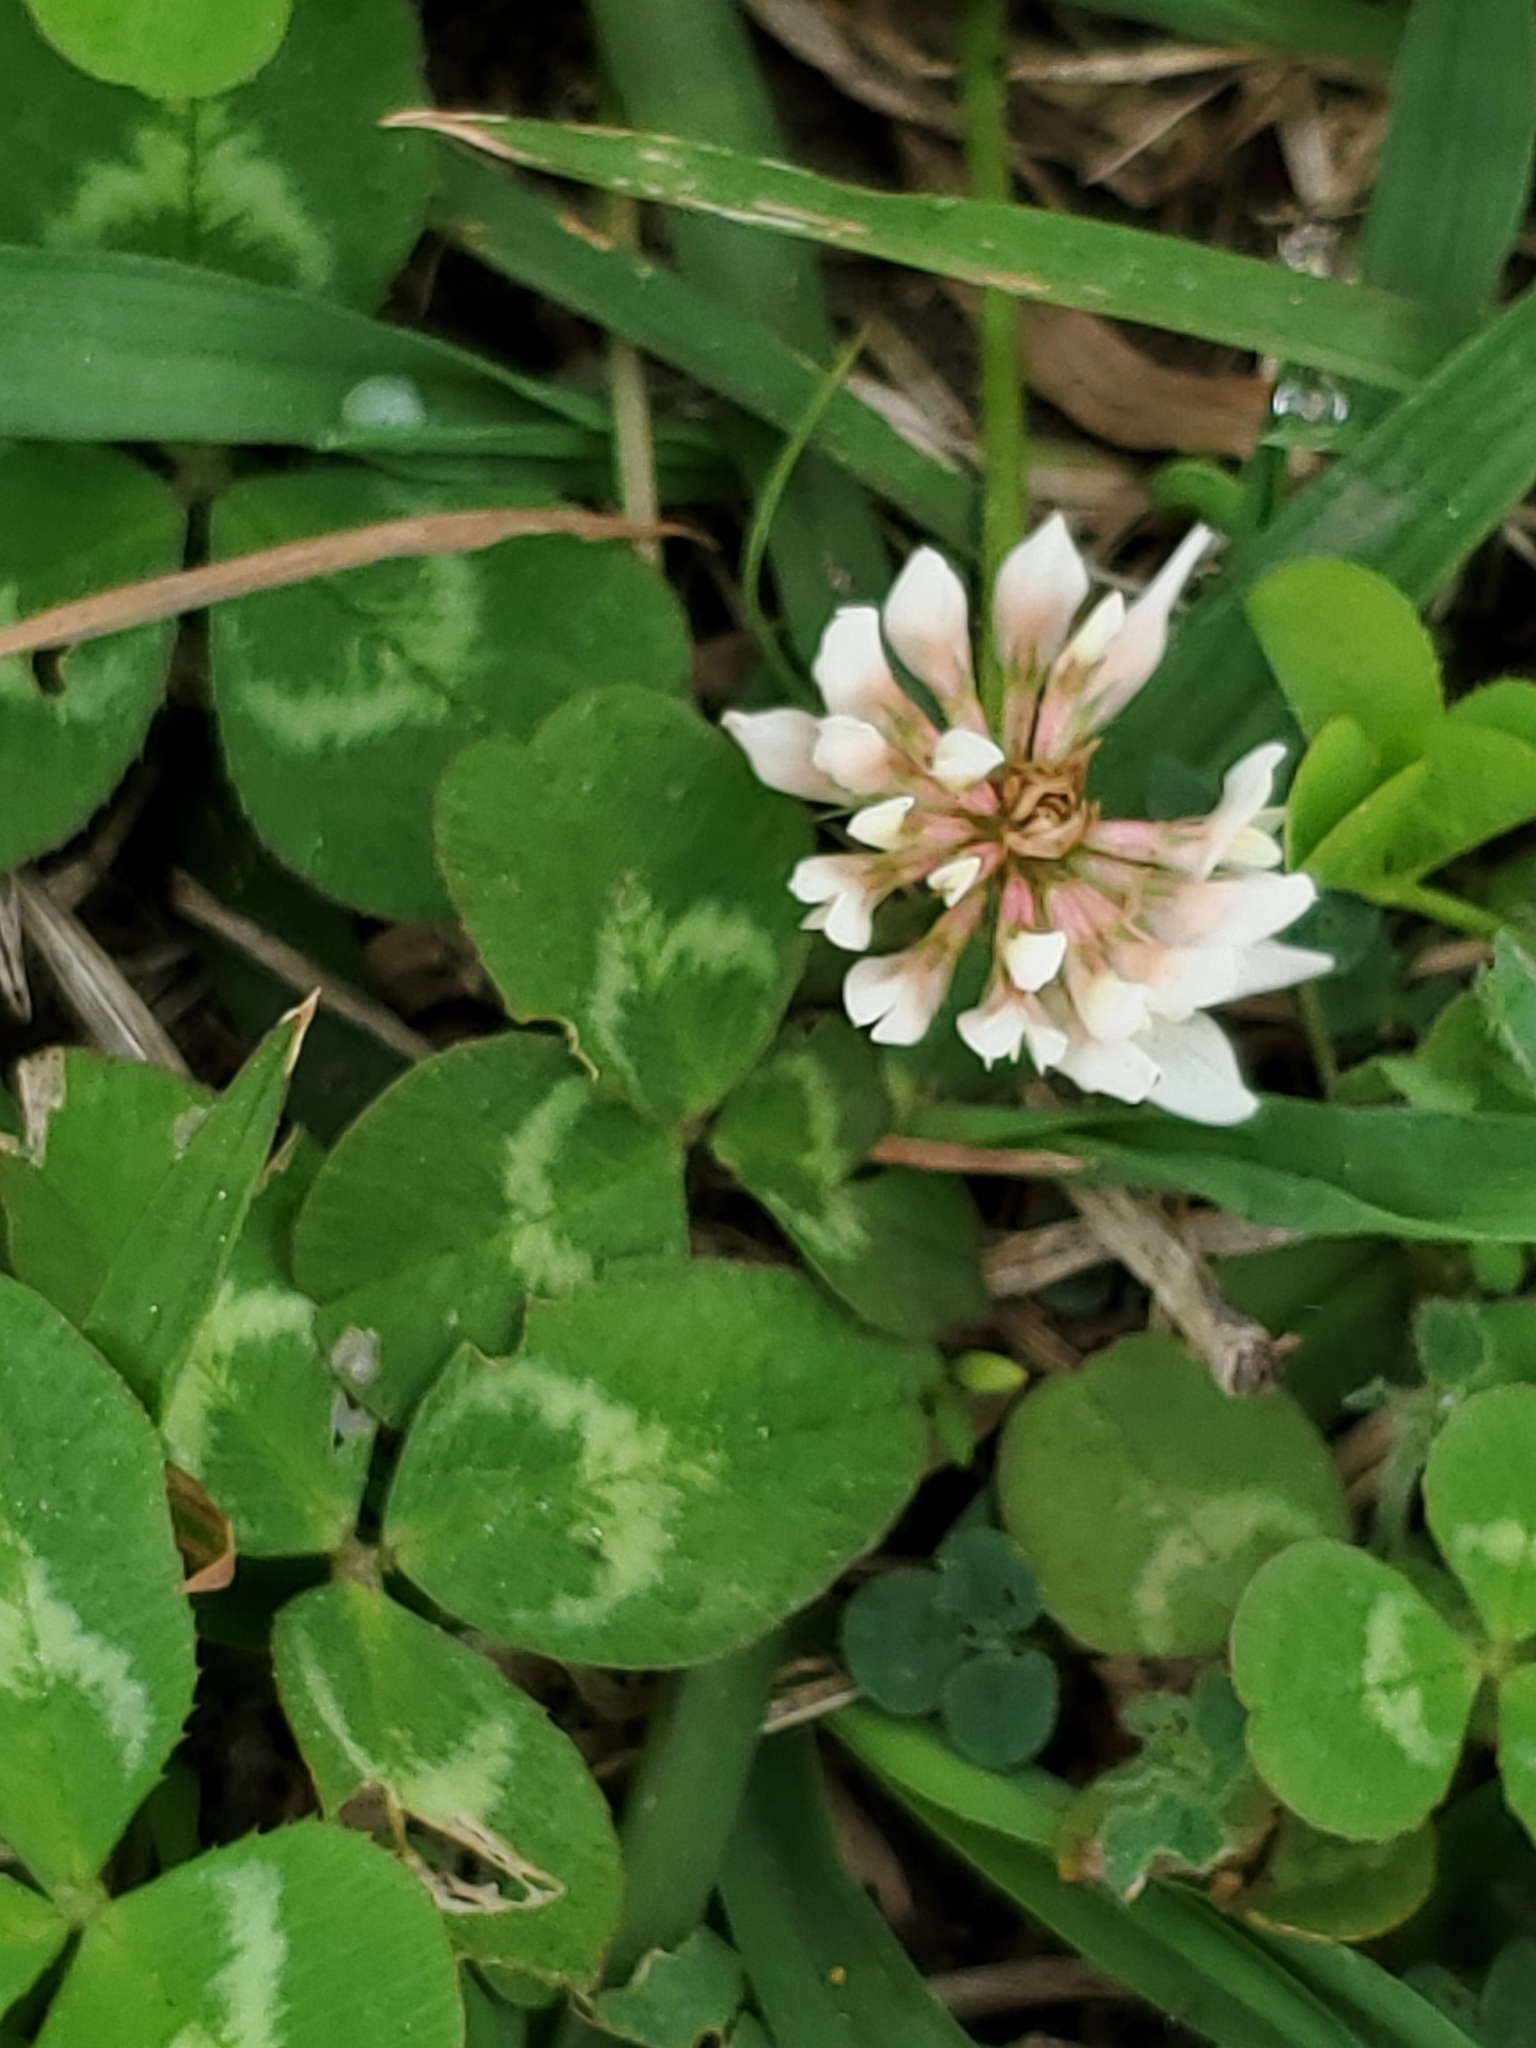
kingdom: Plantae
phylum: Tracheophyta
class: Magnoliopsida
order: Fabales
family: Fabaceae
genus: Trifolium
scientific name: Trifolium repens
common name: White clover
